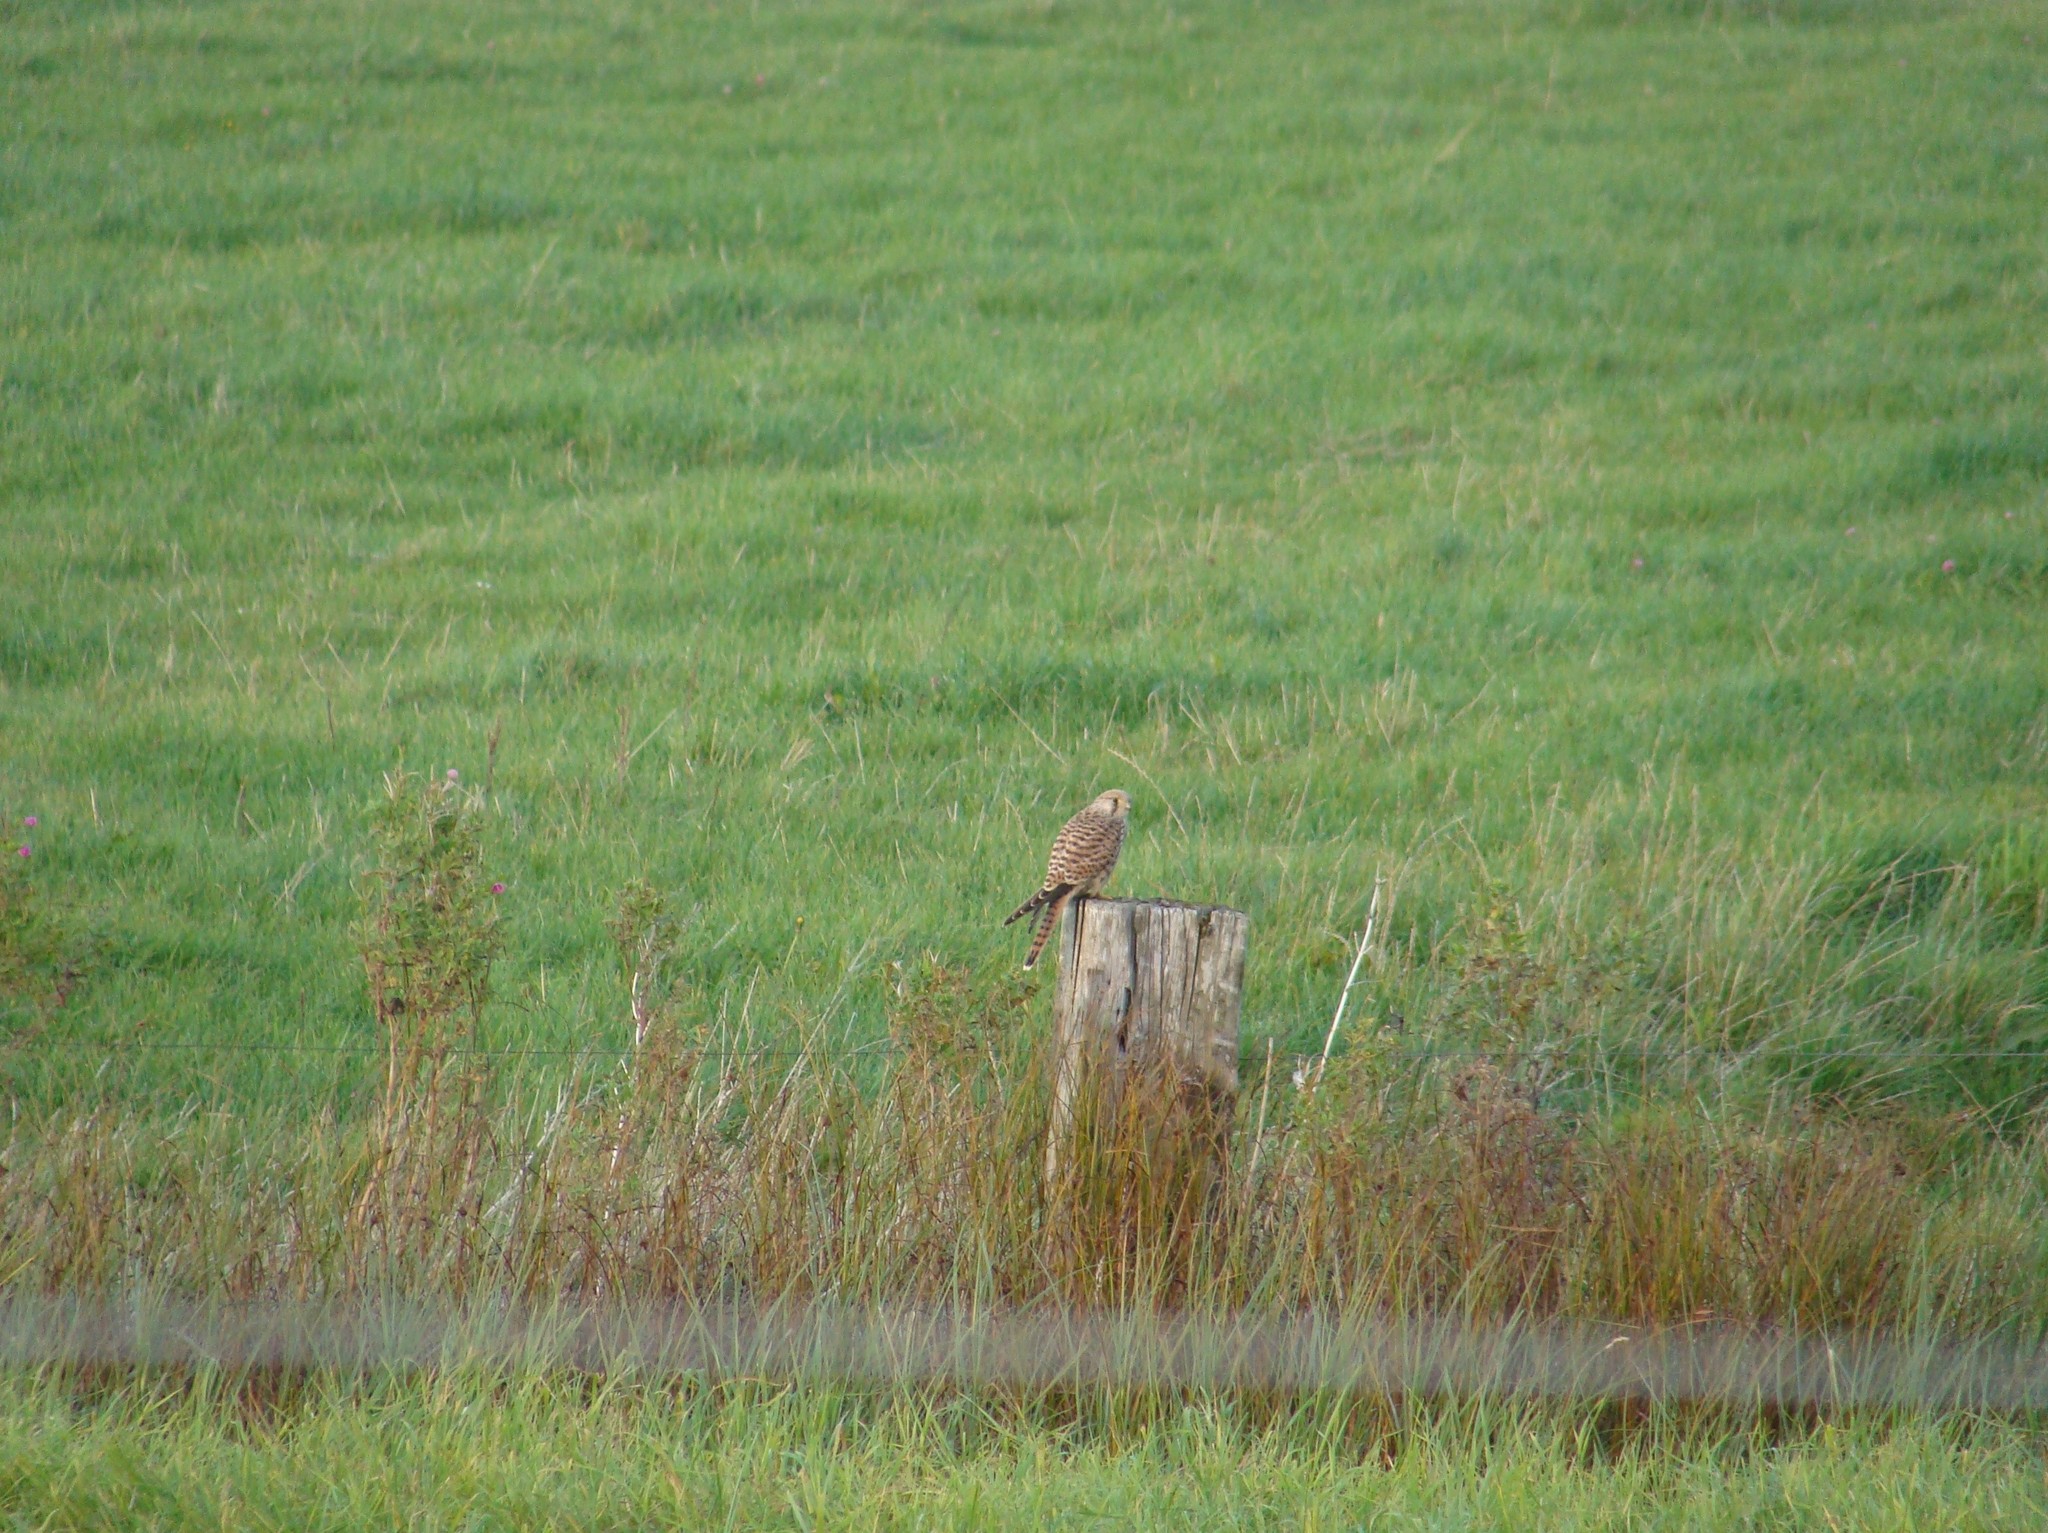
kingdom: Animalia
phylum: Chordata
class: Aves
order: Falconiformes
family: Falconidae
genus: Falco
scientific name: Falco tinnunculus
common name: Common kestrel
